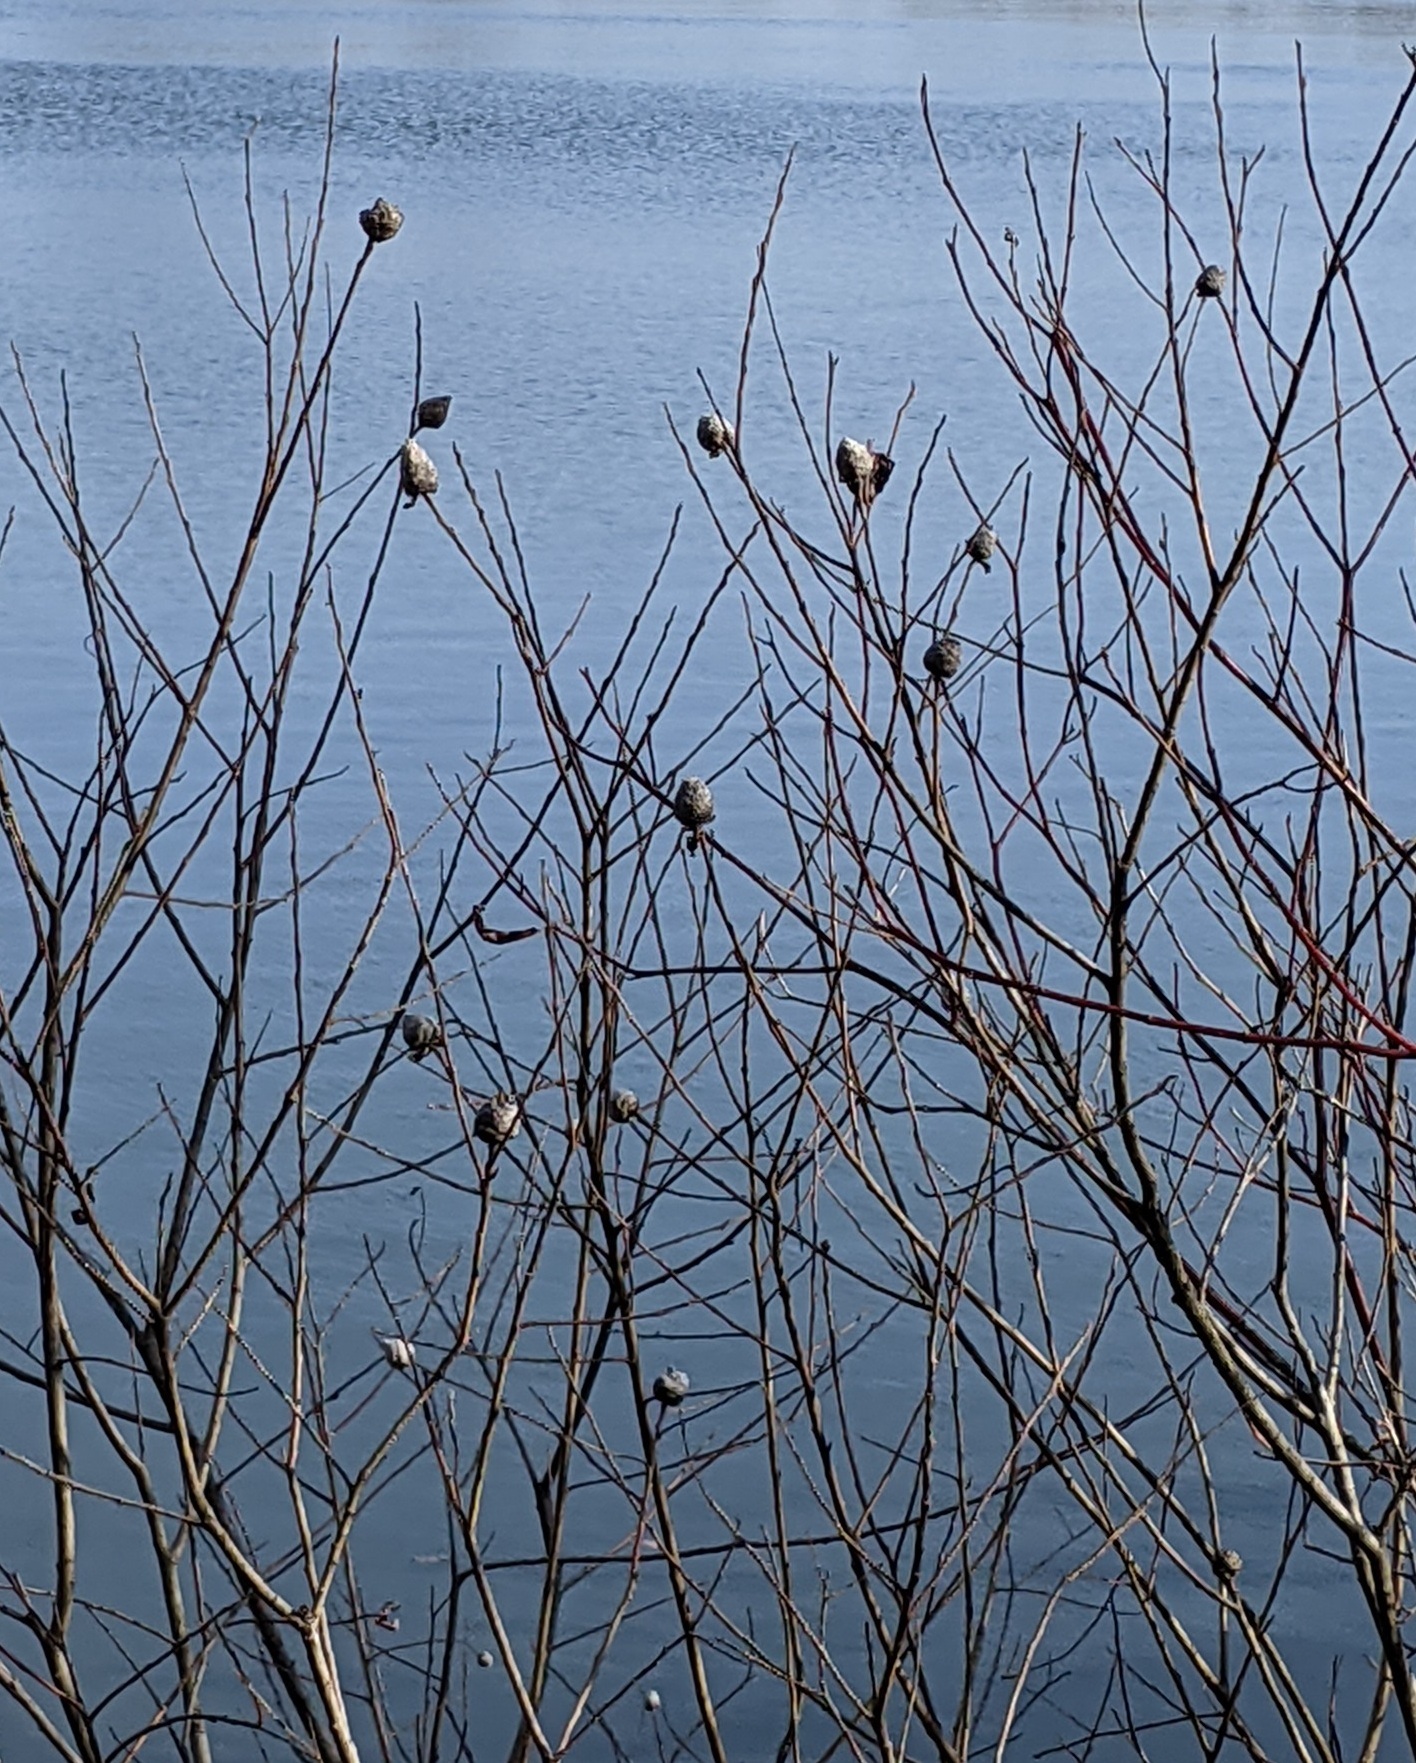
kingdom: Animalia
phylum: Arthropoda
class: Insecta
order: Diptera
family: Cecidomyiidae
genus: Rabdophaga
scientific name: Rabdophaga strobiloides
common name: Willow pinecone gall midge
